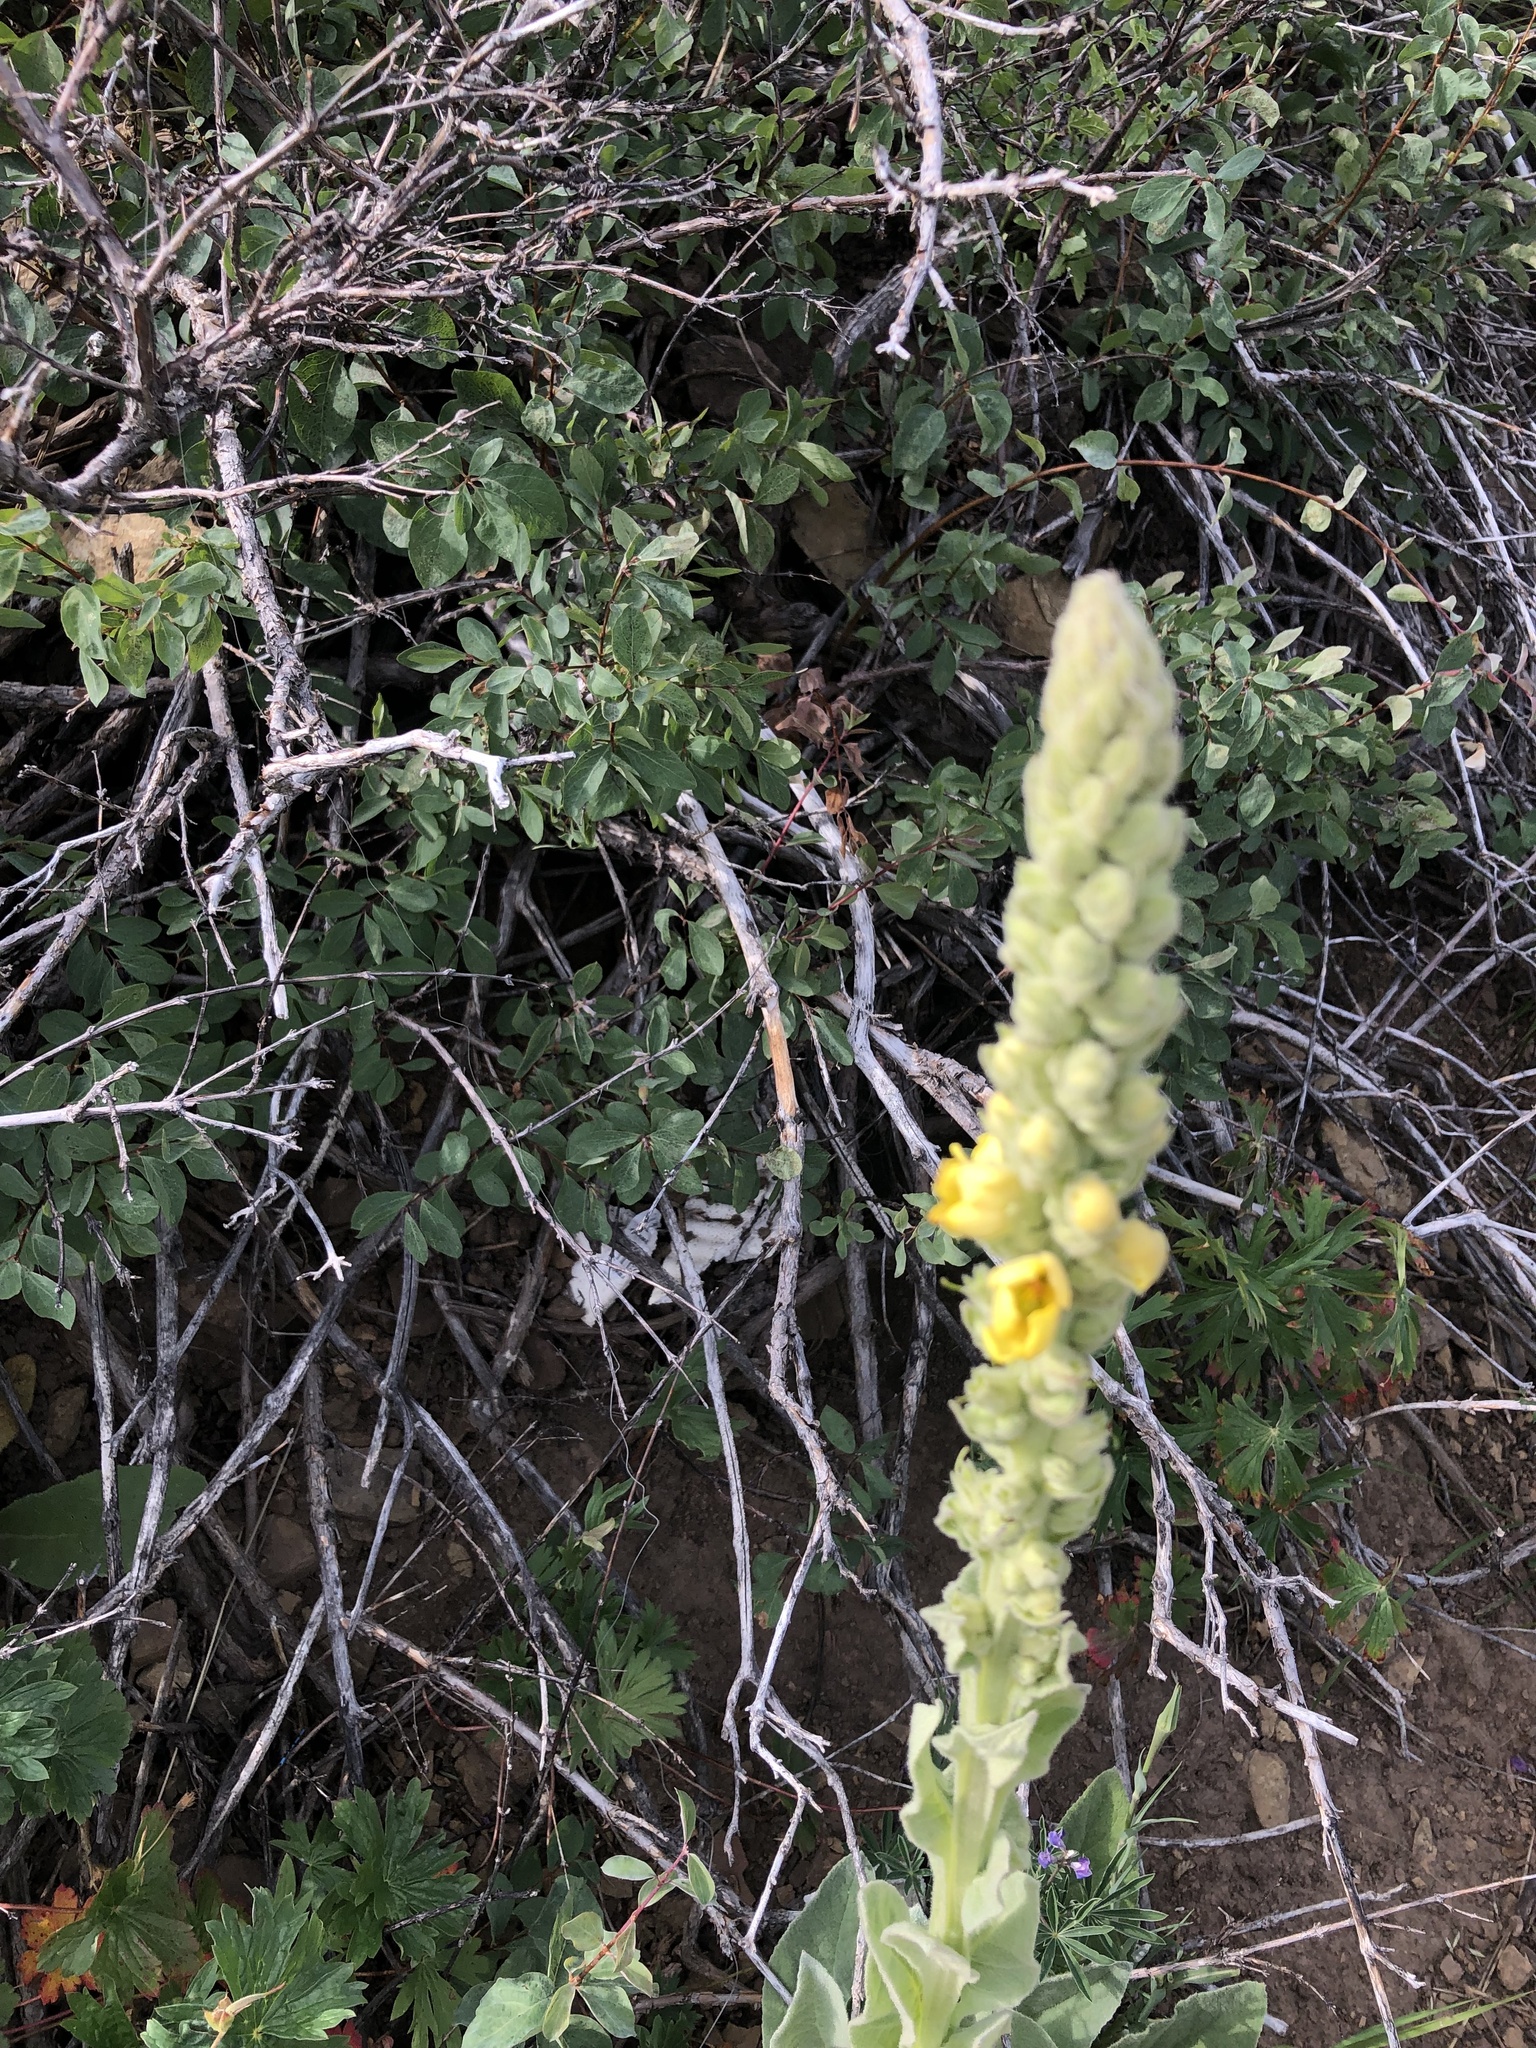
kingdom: Plantae
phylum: Tracheophyta
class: Magnoliopsida
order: Lamiales
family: Scrophulariaceae
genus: Verbascum
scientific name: Verbascum thapsus
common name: Common mullein
